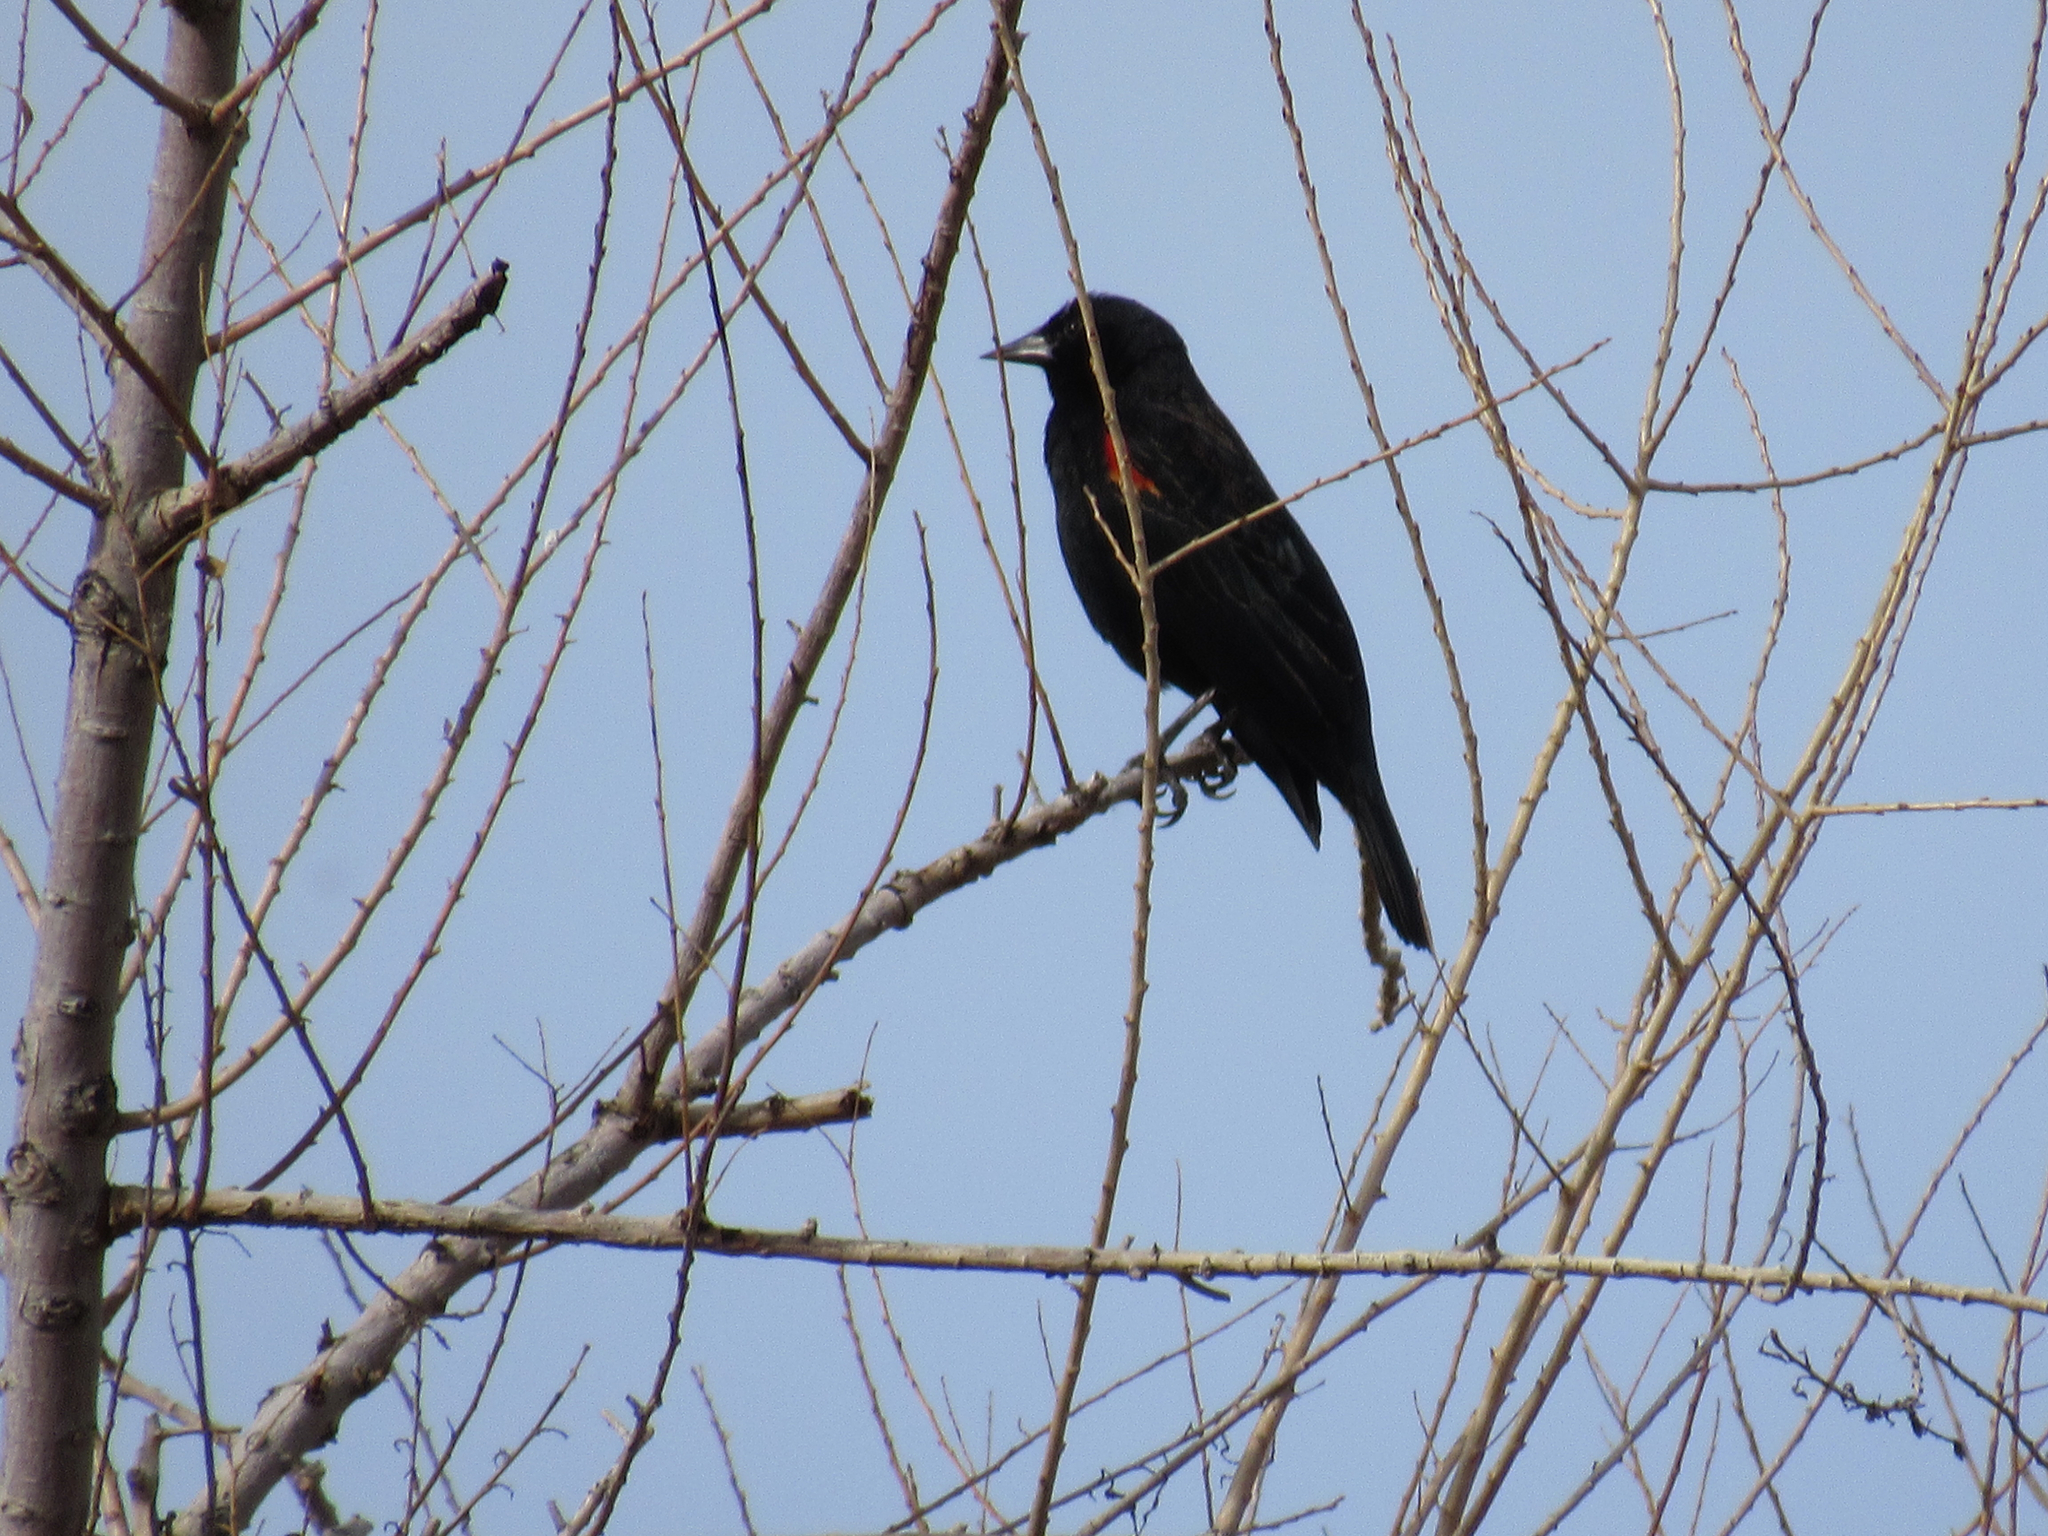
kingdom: Animalia
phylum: Chordata
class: Aves
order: Passeriformes
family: Icteridae
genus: Agelaius
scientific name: Agelaius phoeniceus
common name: Red-winged blackbird
